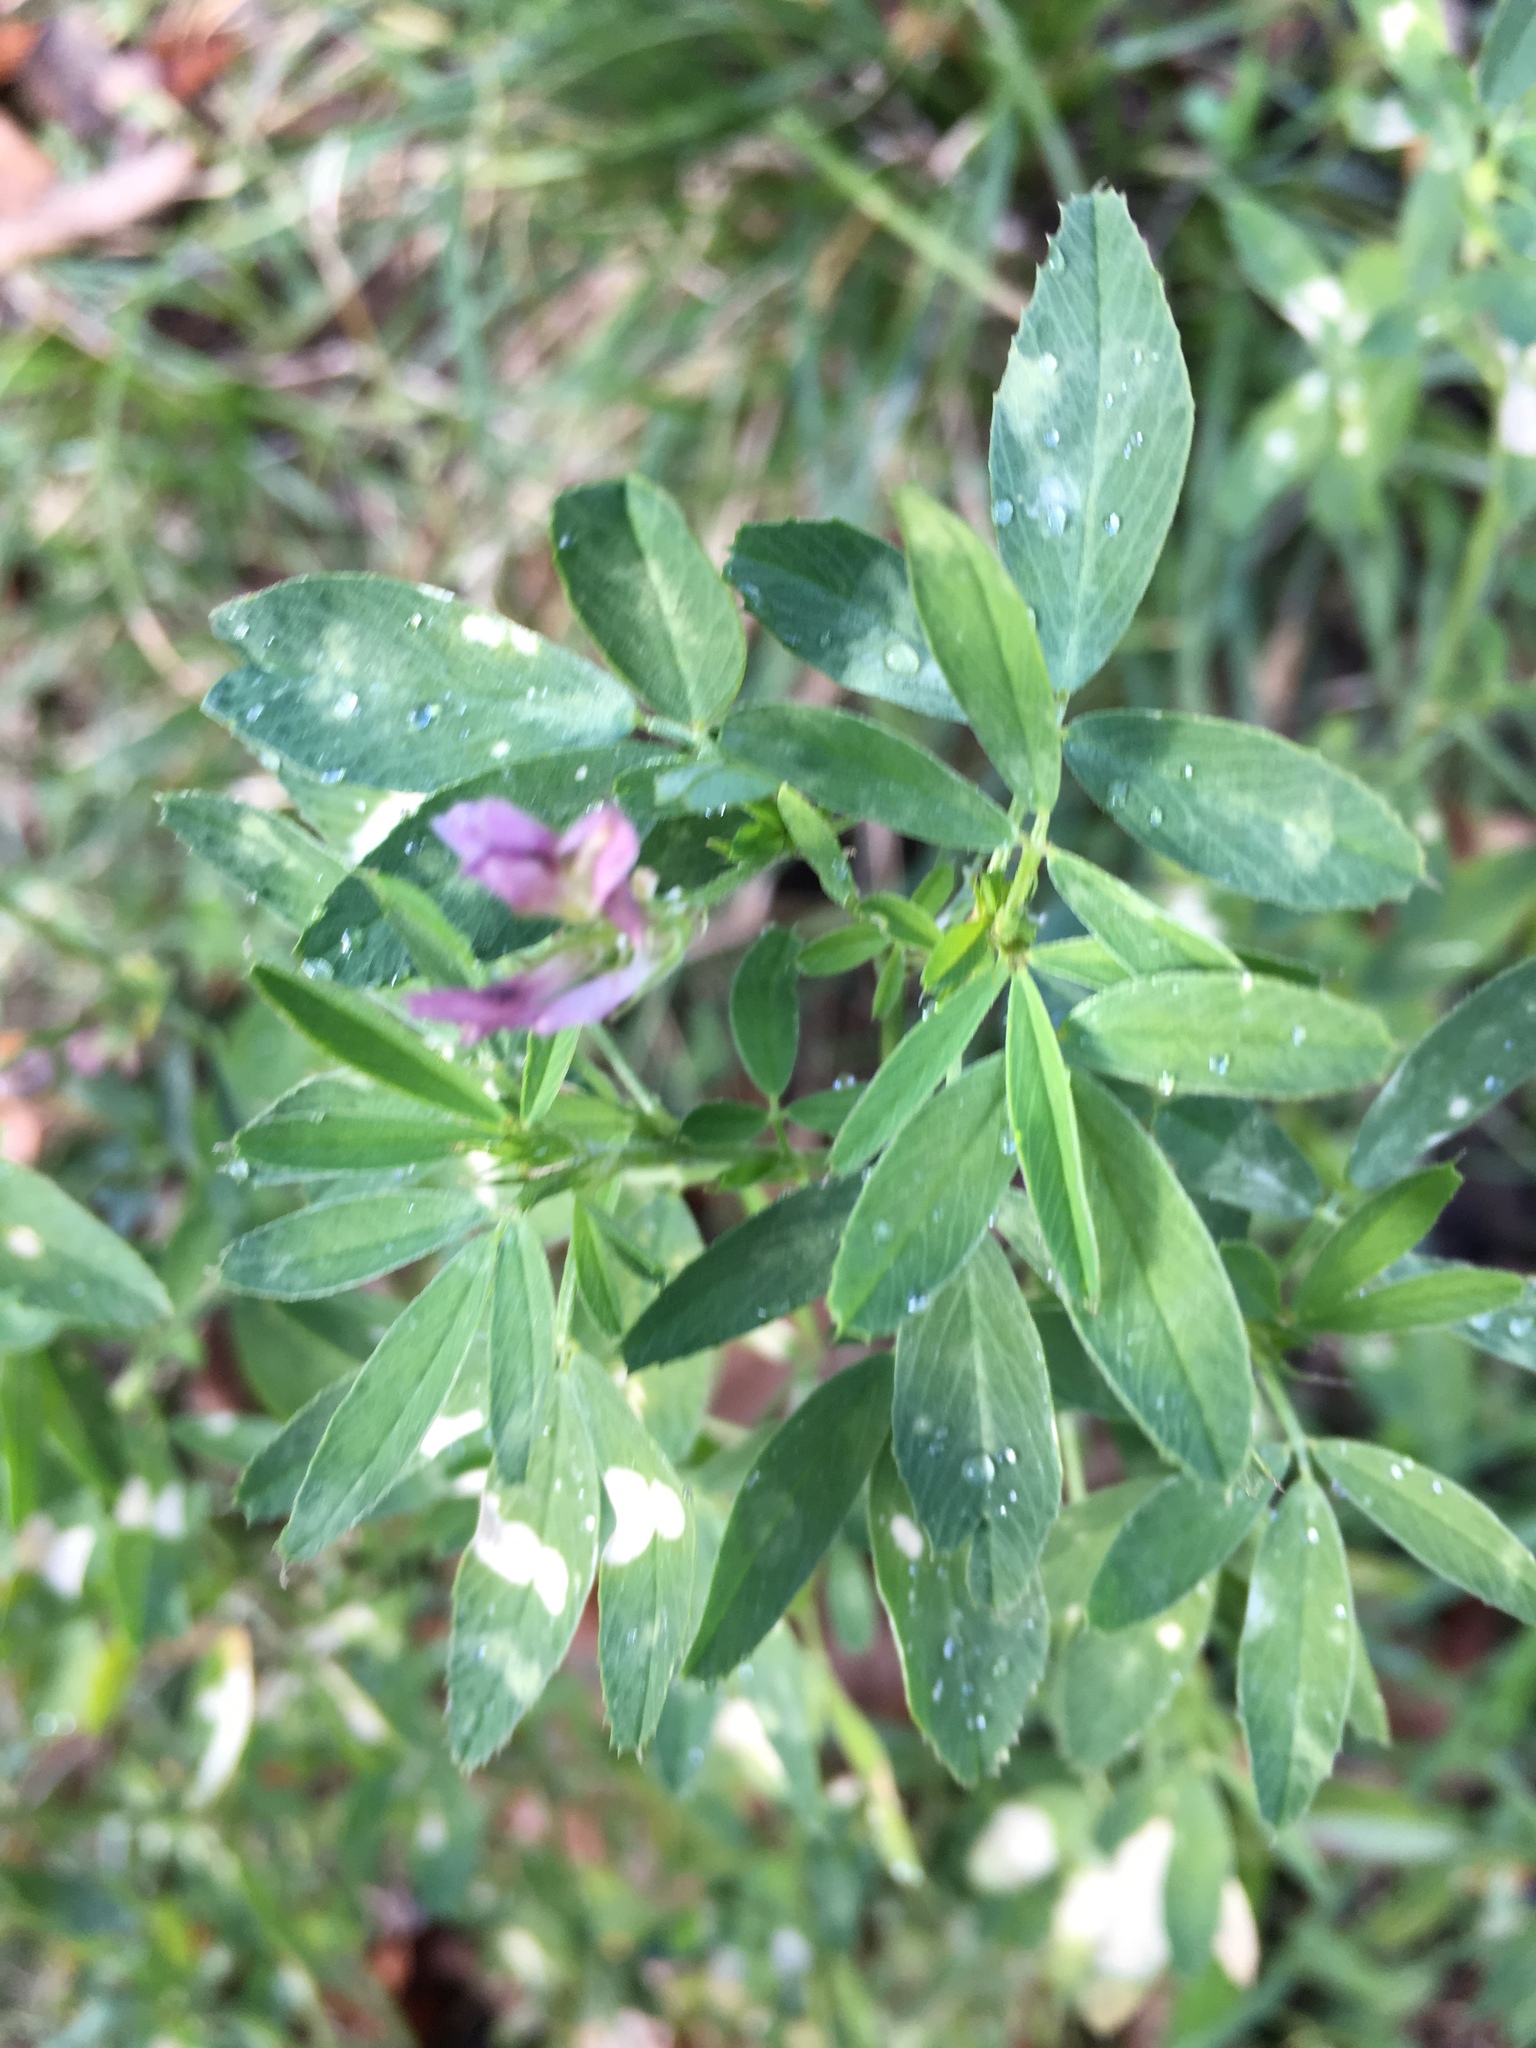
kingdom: Plantae
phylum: Tracheophyta
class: Magnoliopsida
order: Fabales
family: Fabaceae
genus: Medicago
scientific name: Medicago sativa
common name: Alfalfa
